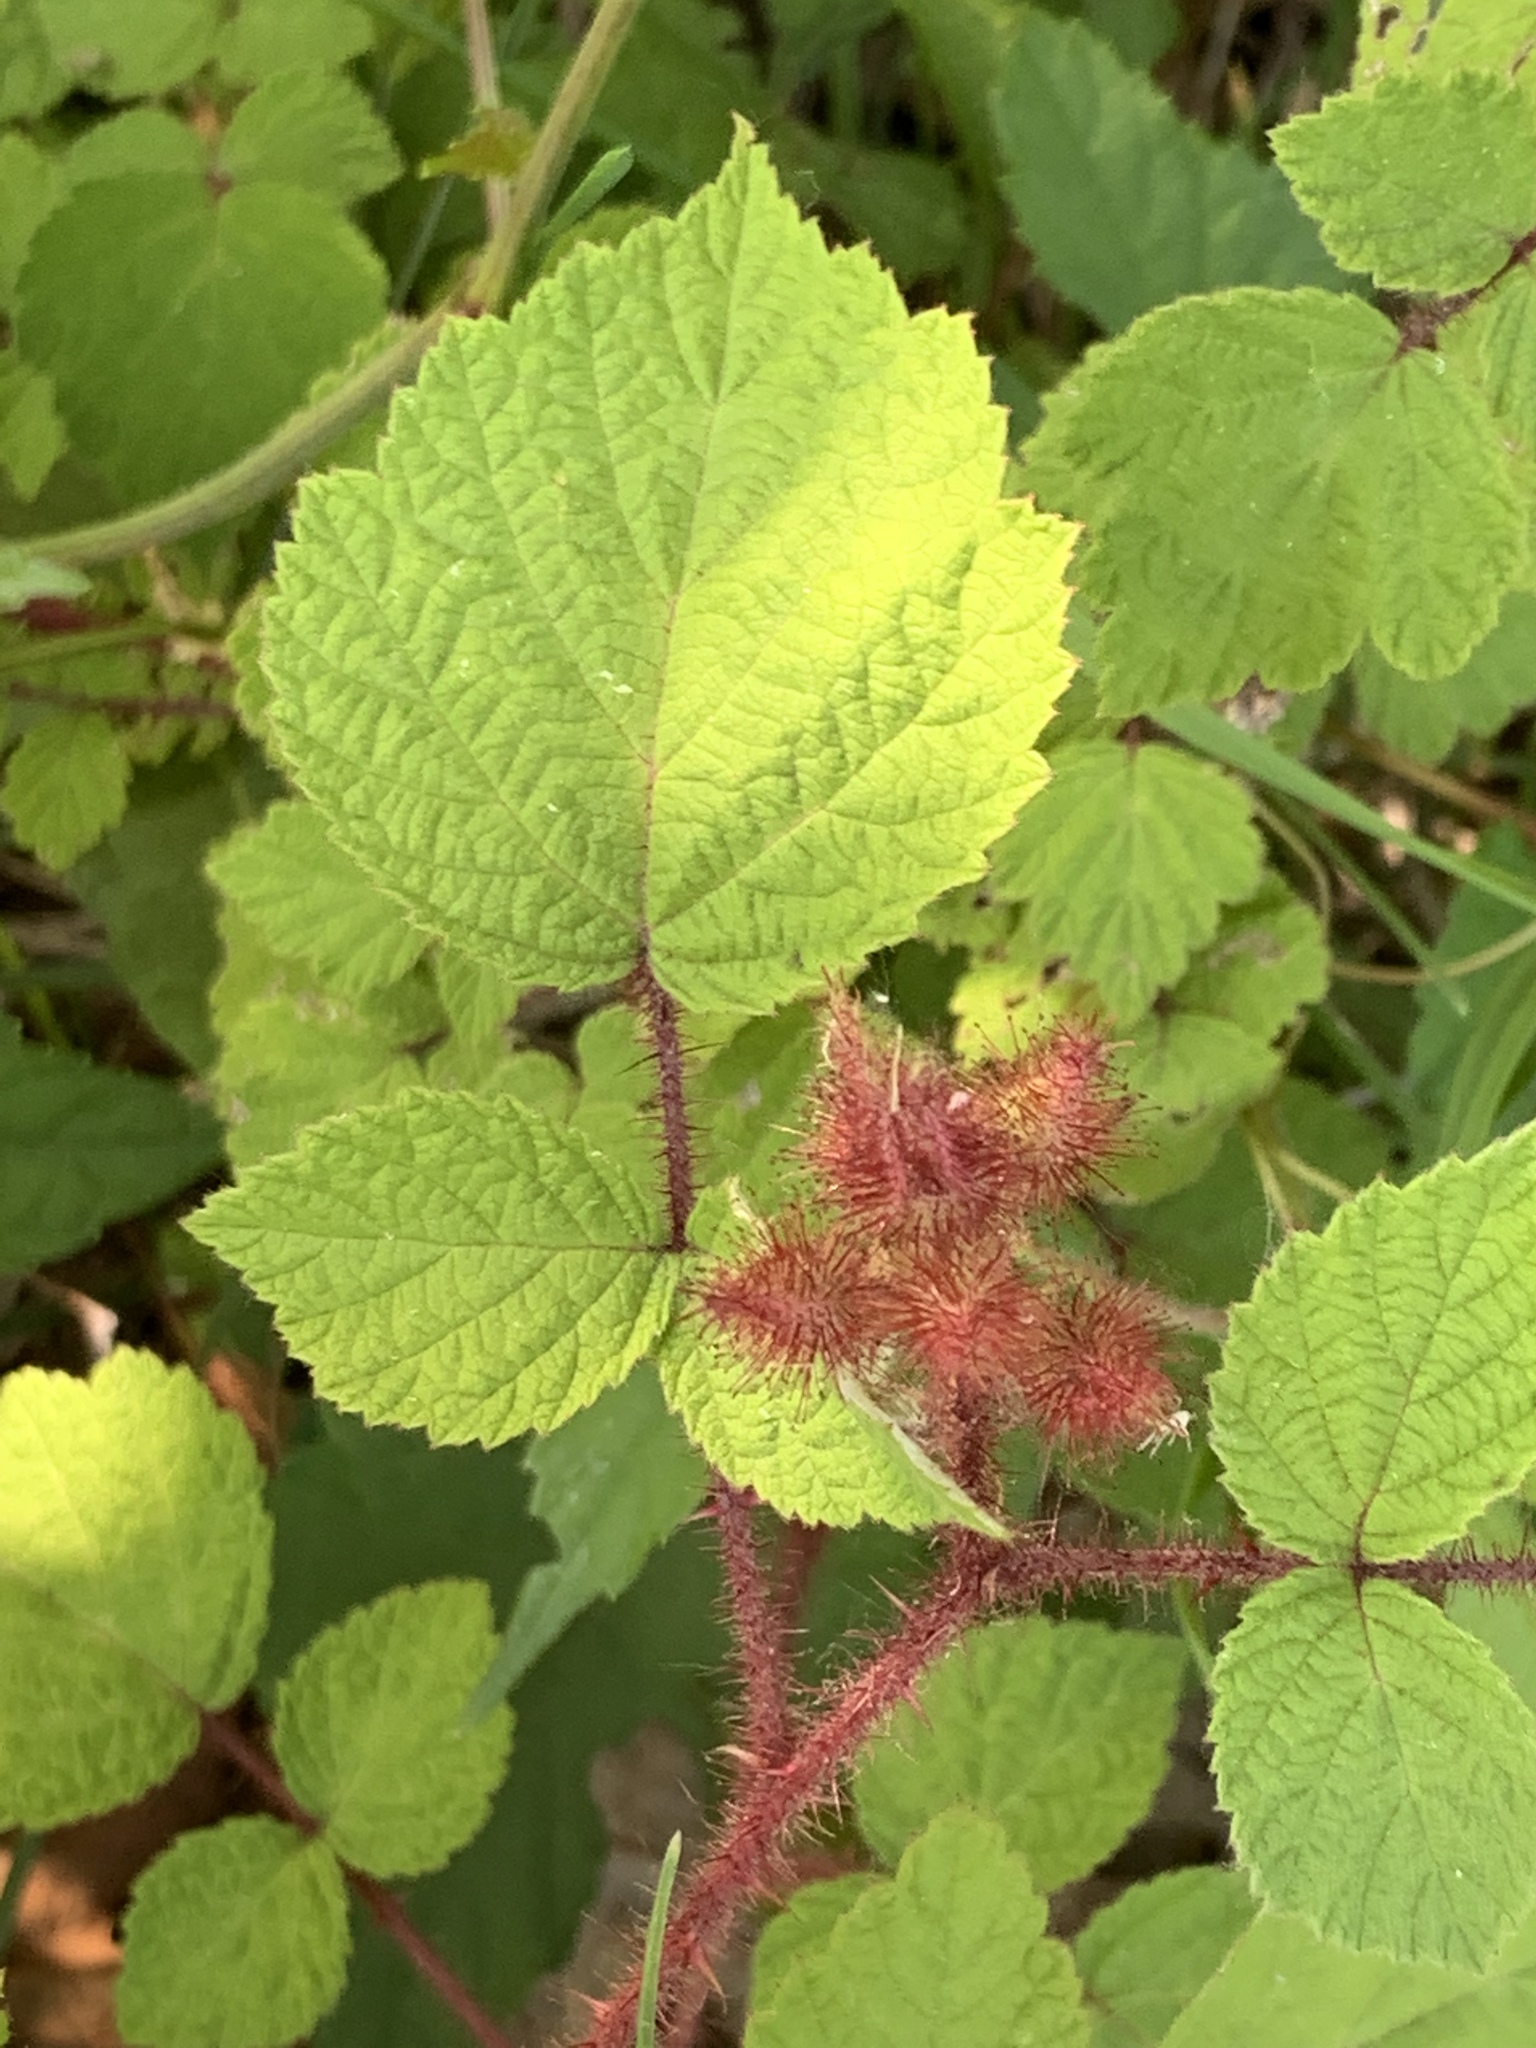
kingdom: Plantae
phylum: Tracheophyta
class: Magnoliopsida
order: Rosales
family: Rosaceae
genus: Rubus
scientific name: Rubus phoenicolasius
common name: Japanese wineberry
